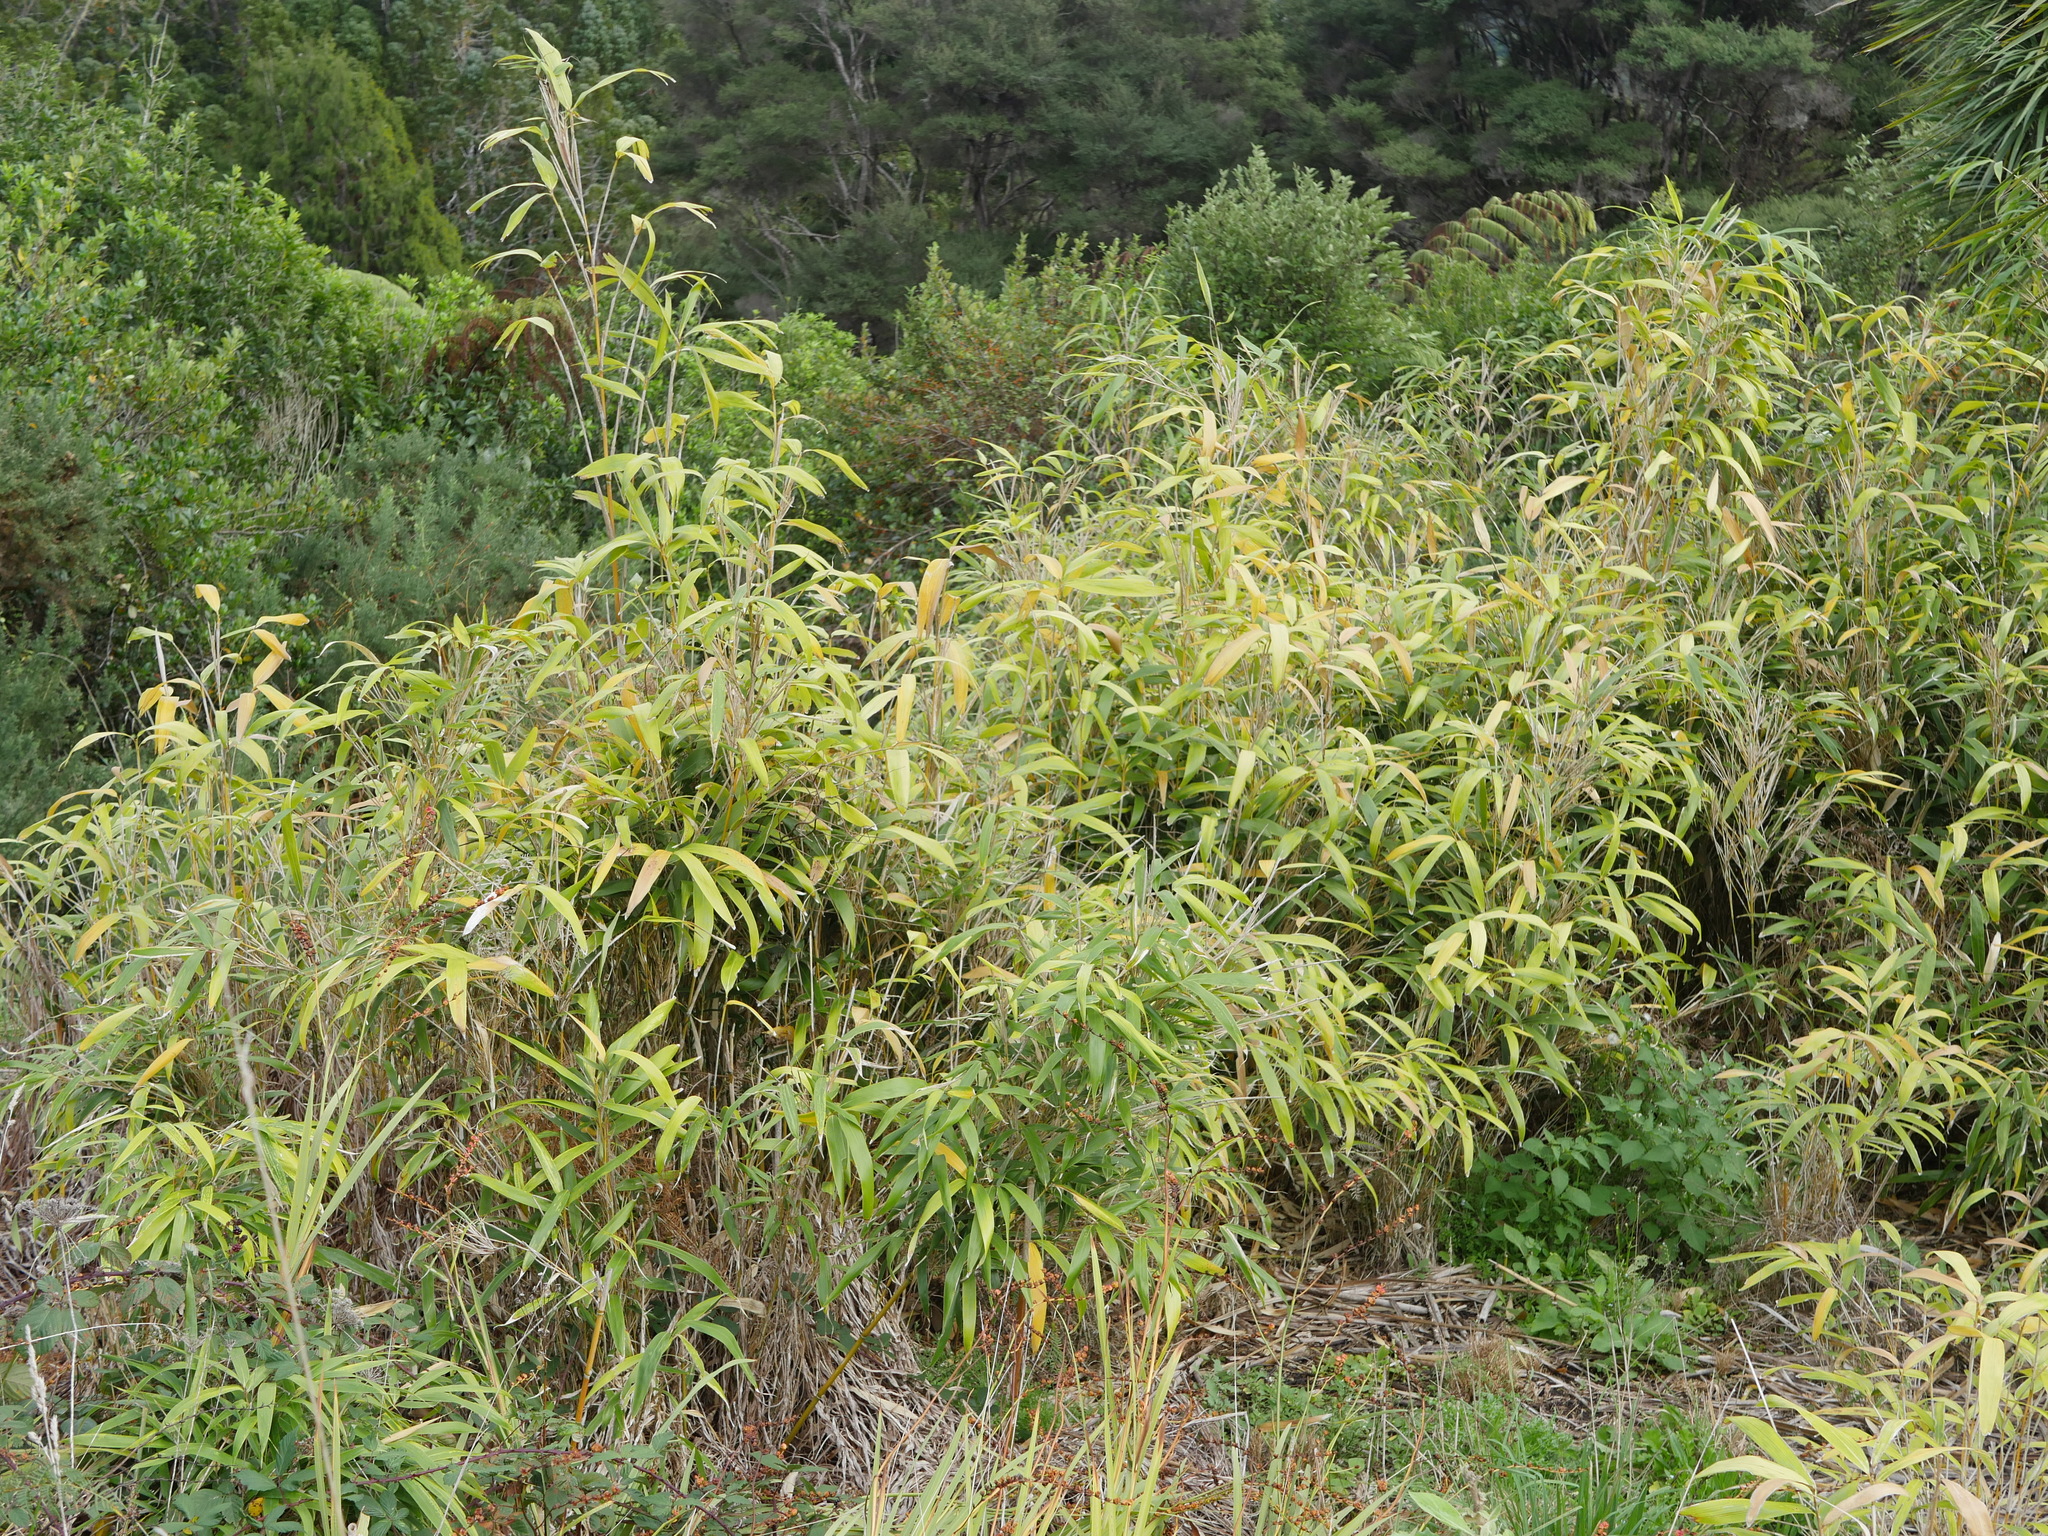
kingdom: Plantae
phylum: Tracheophyta
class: Liliopsida
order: Poales
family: Poaceae
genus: Pseudosasa
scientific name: Pseudosasa japonica
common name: Arrow bamboo
